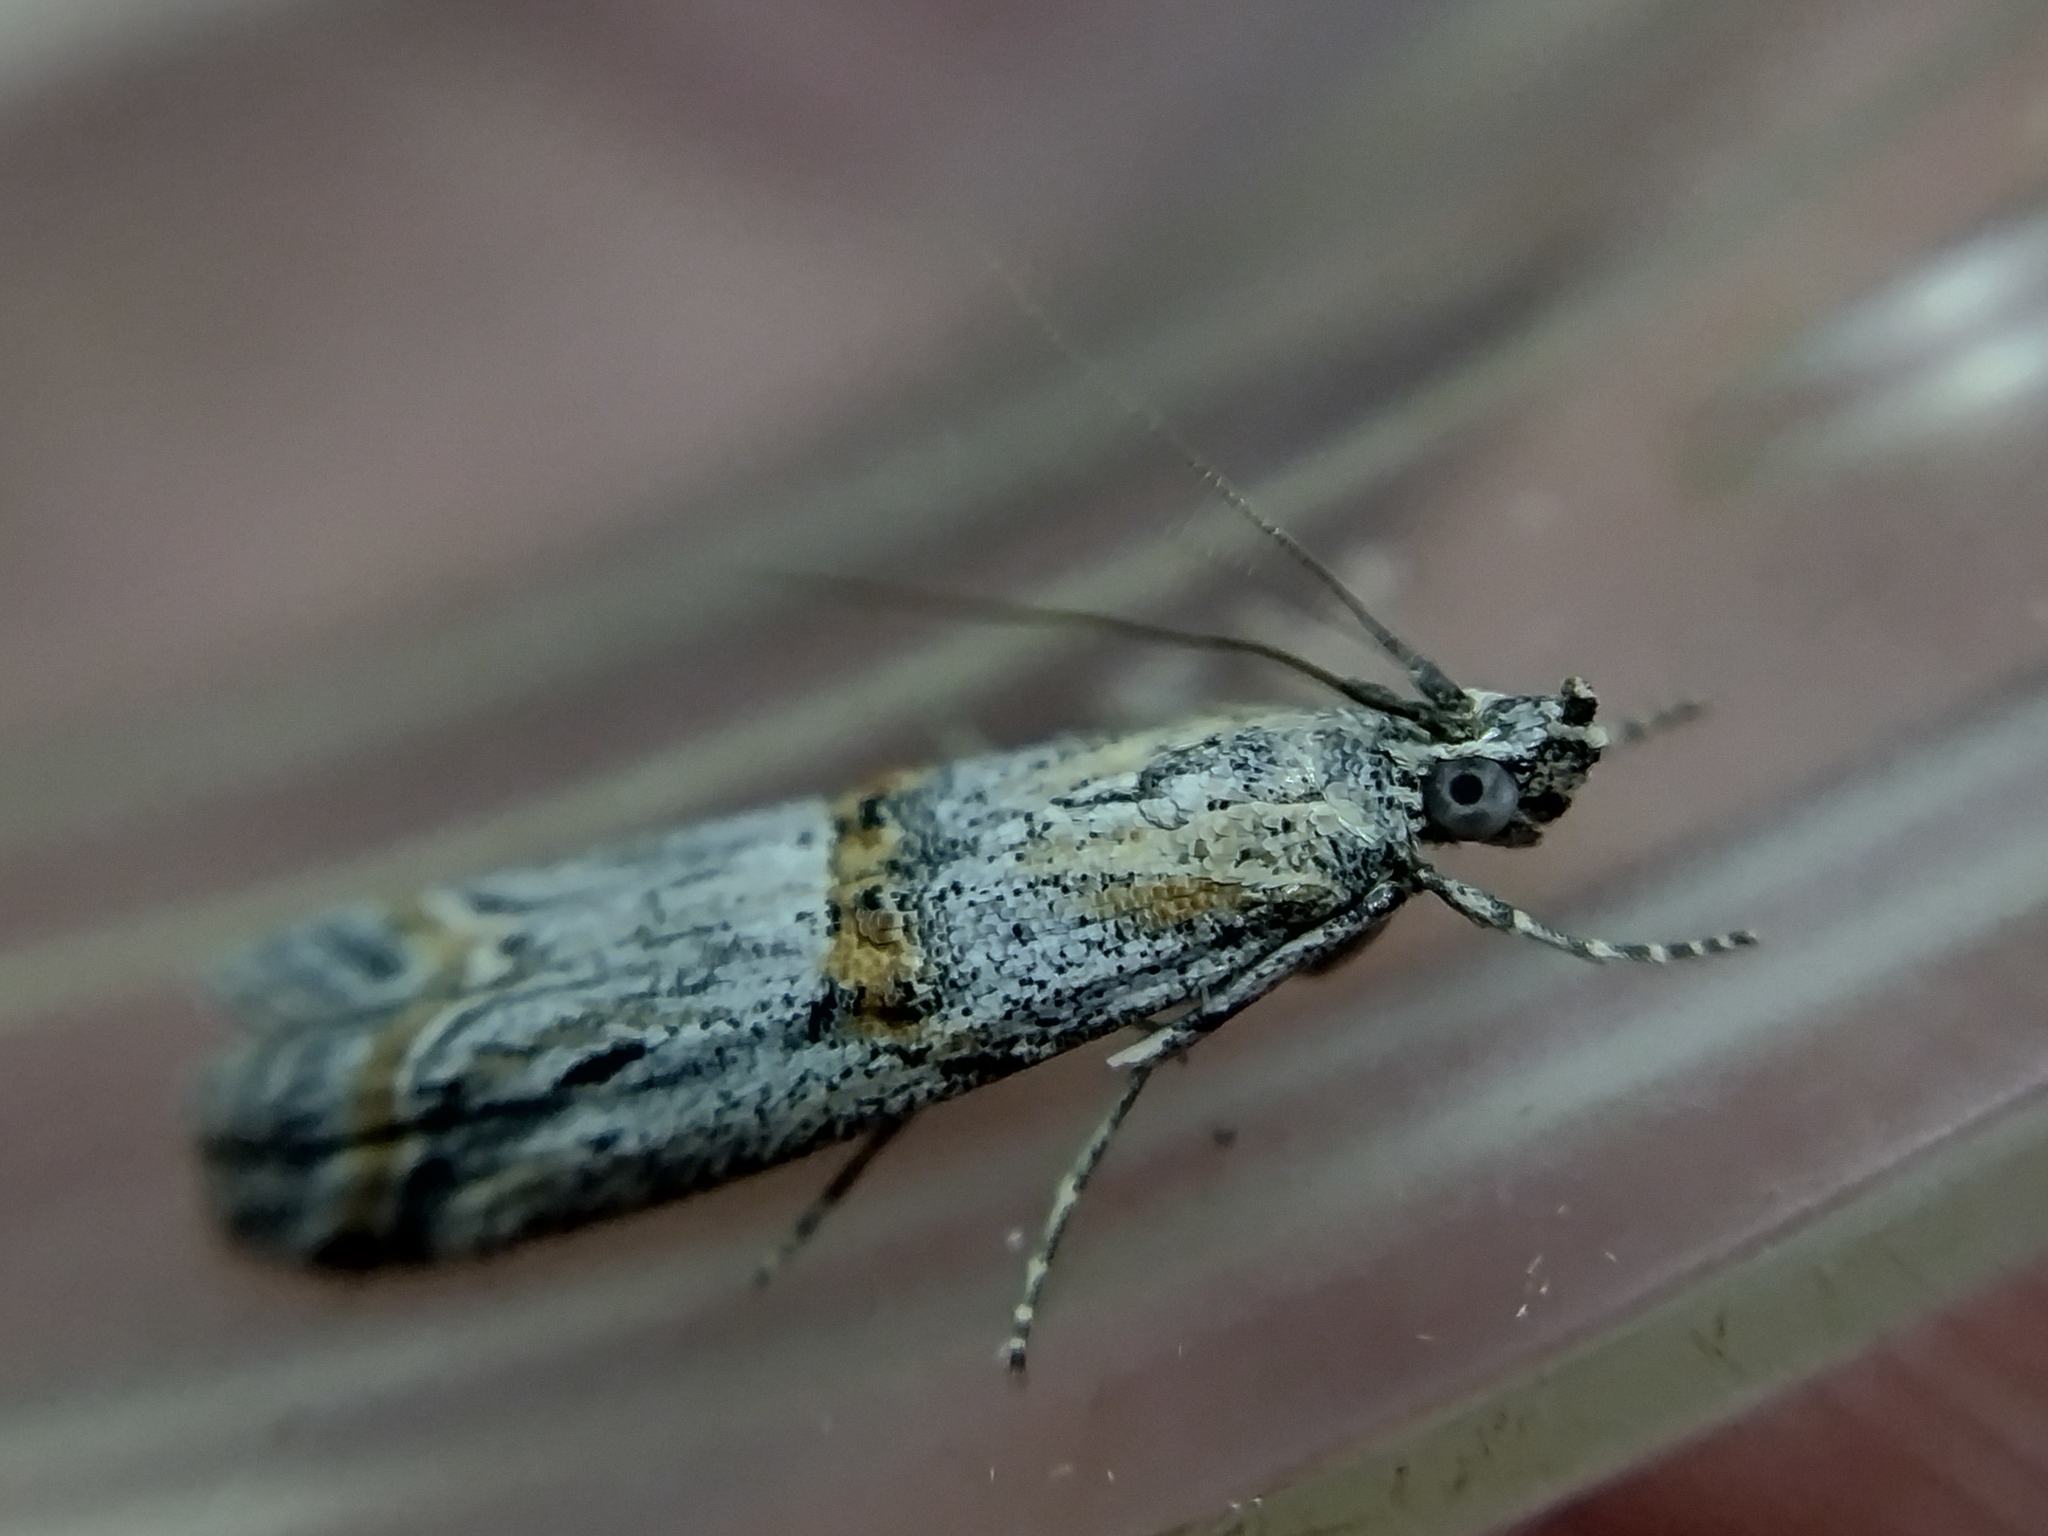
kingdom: Animalia
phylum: Arthropoda
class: Insecta
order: Lepidoptera
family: Pyralidae
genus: Psorosa
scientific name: Psorosa strictella
